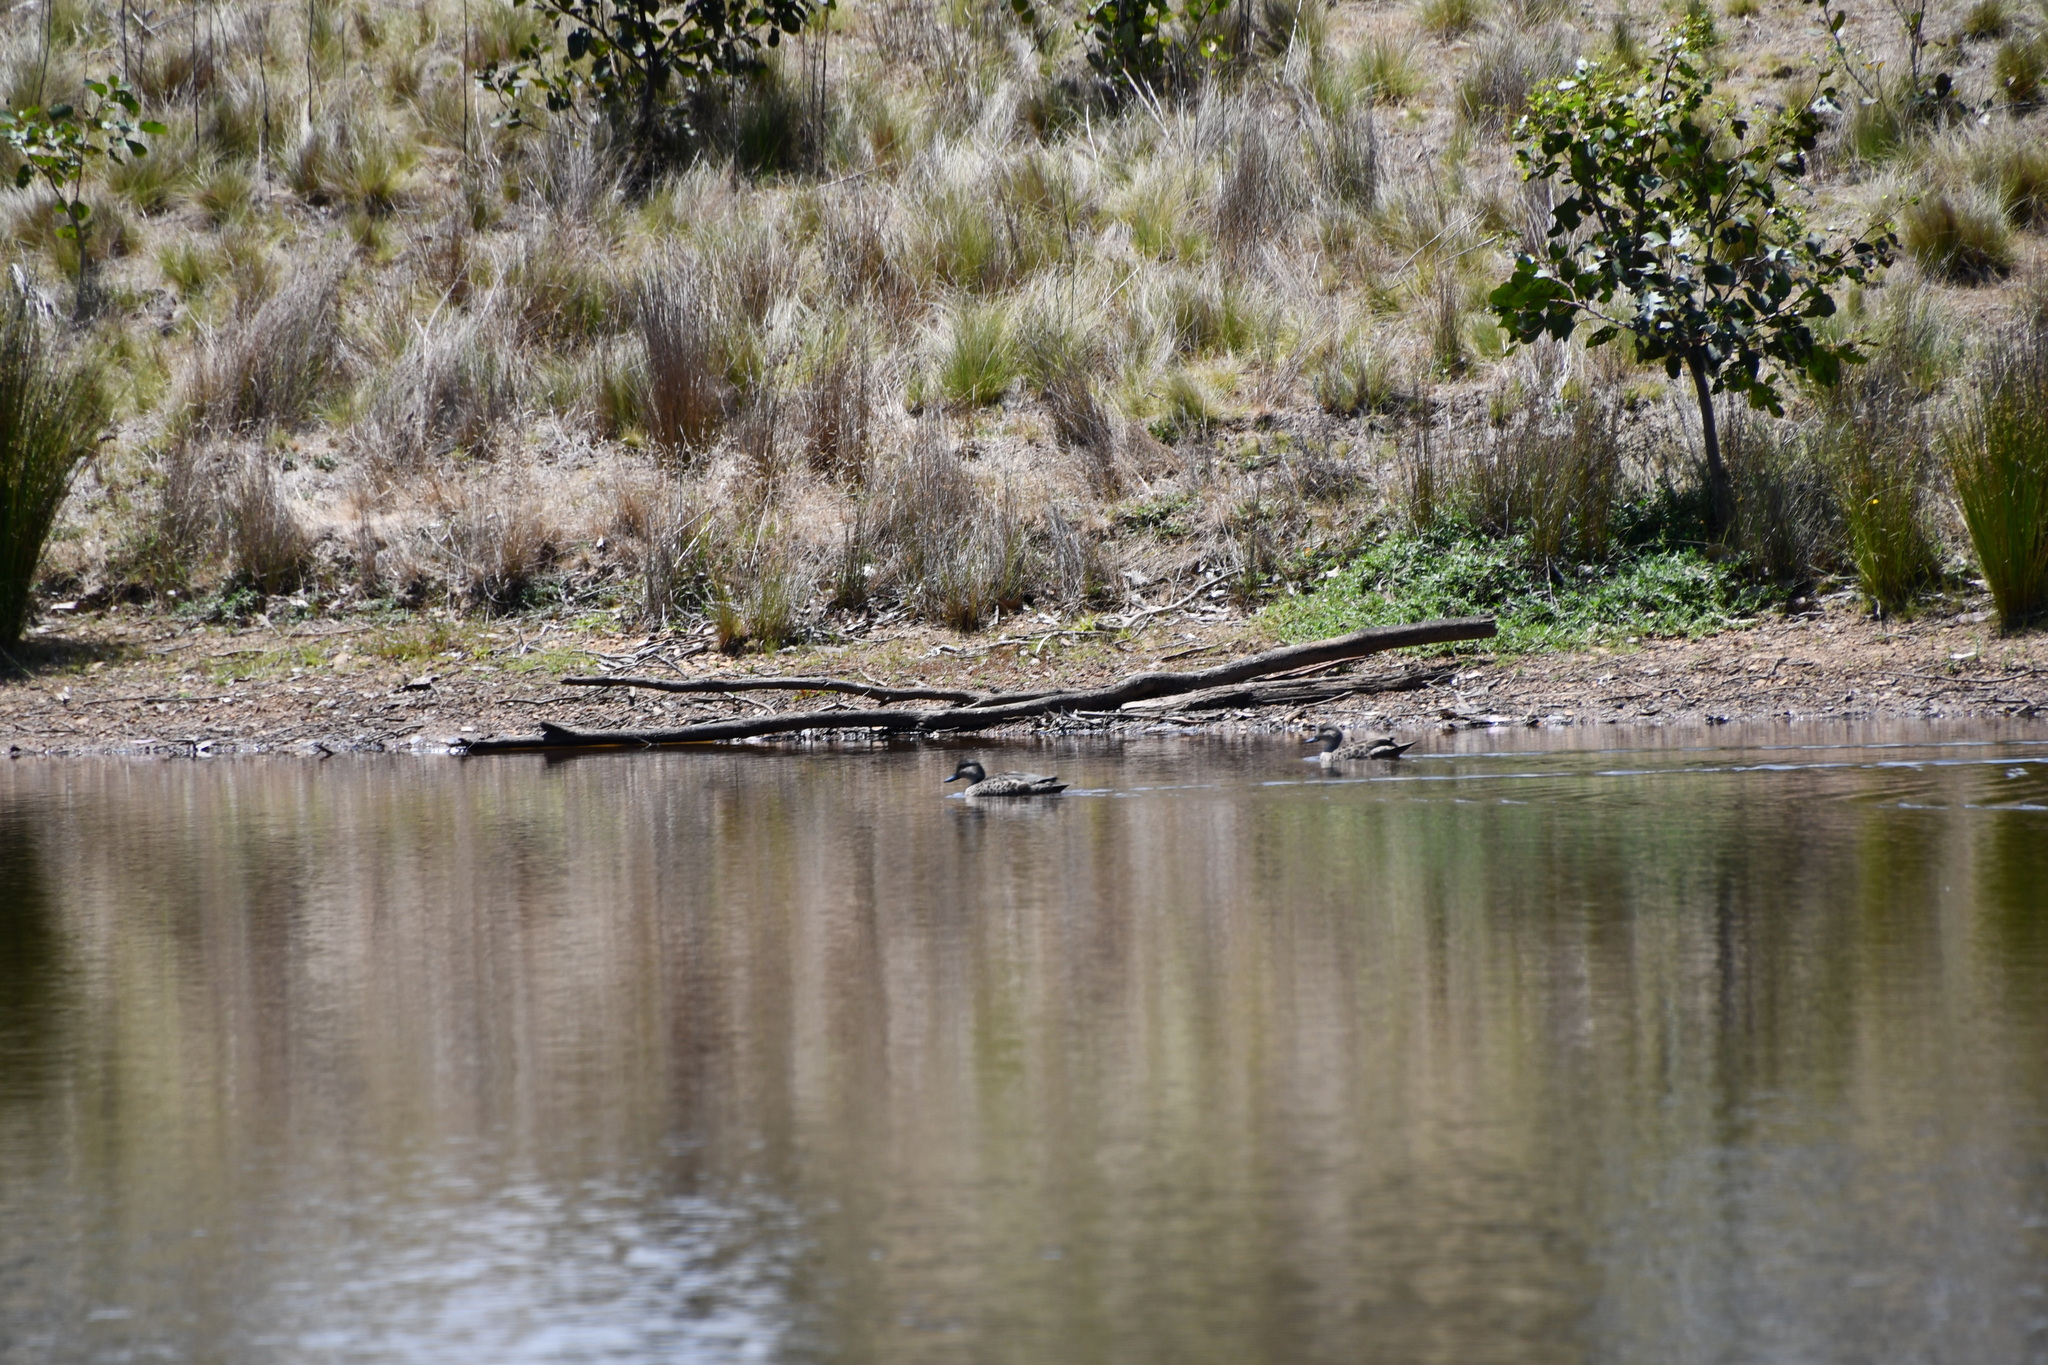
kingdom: Animalia
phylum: Chordata
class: Aves
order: Anseriformes
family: Anatidae
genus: Anas
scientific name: Anas gracilis
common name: Grey teal
